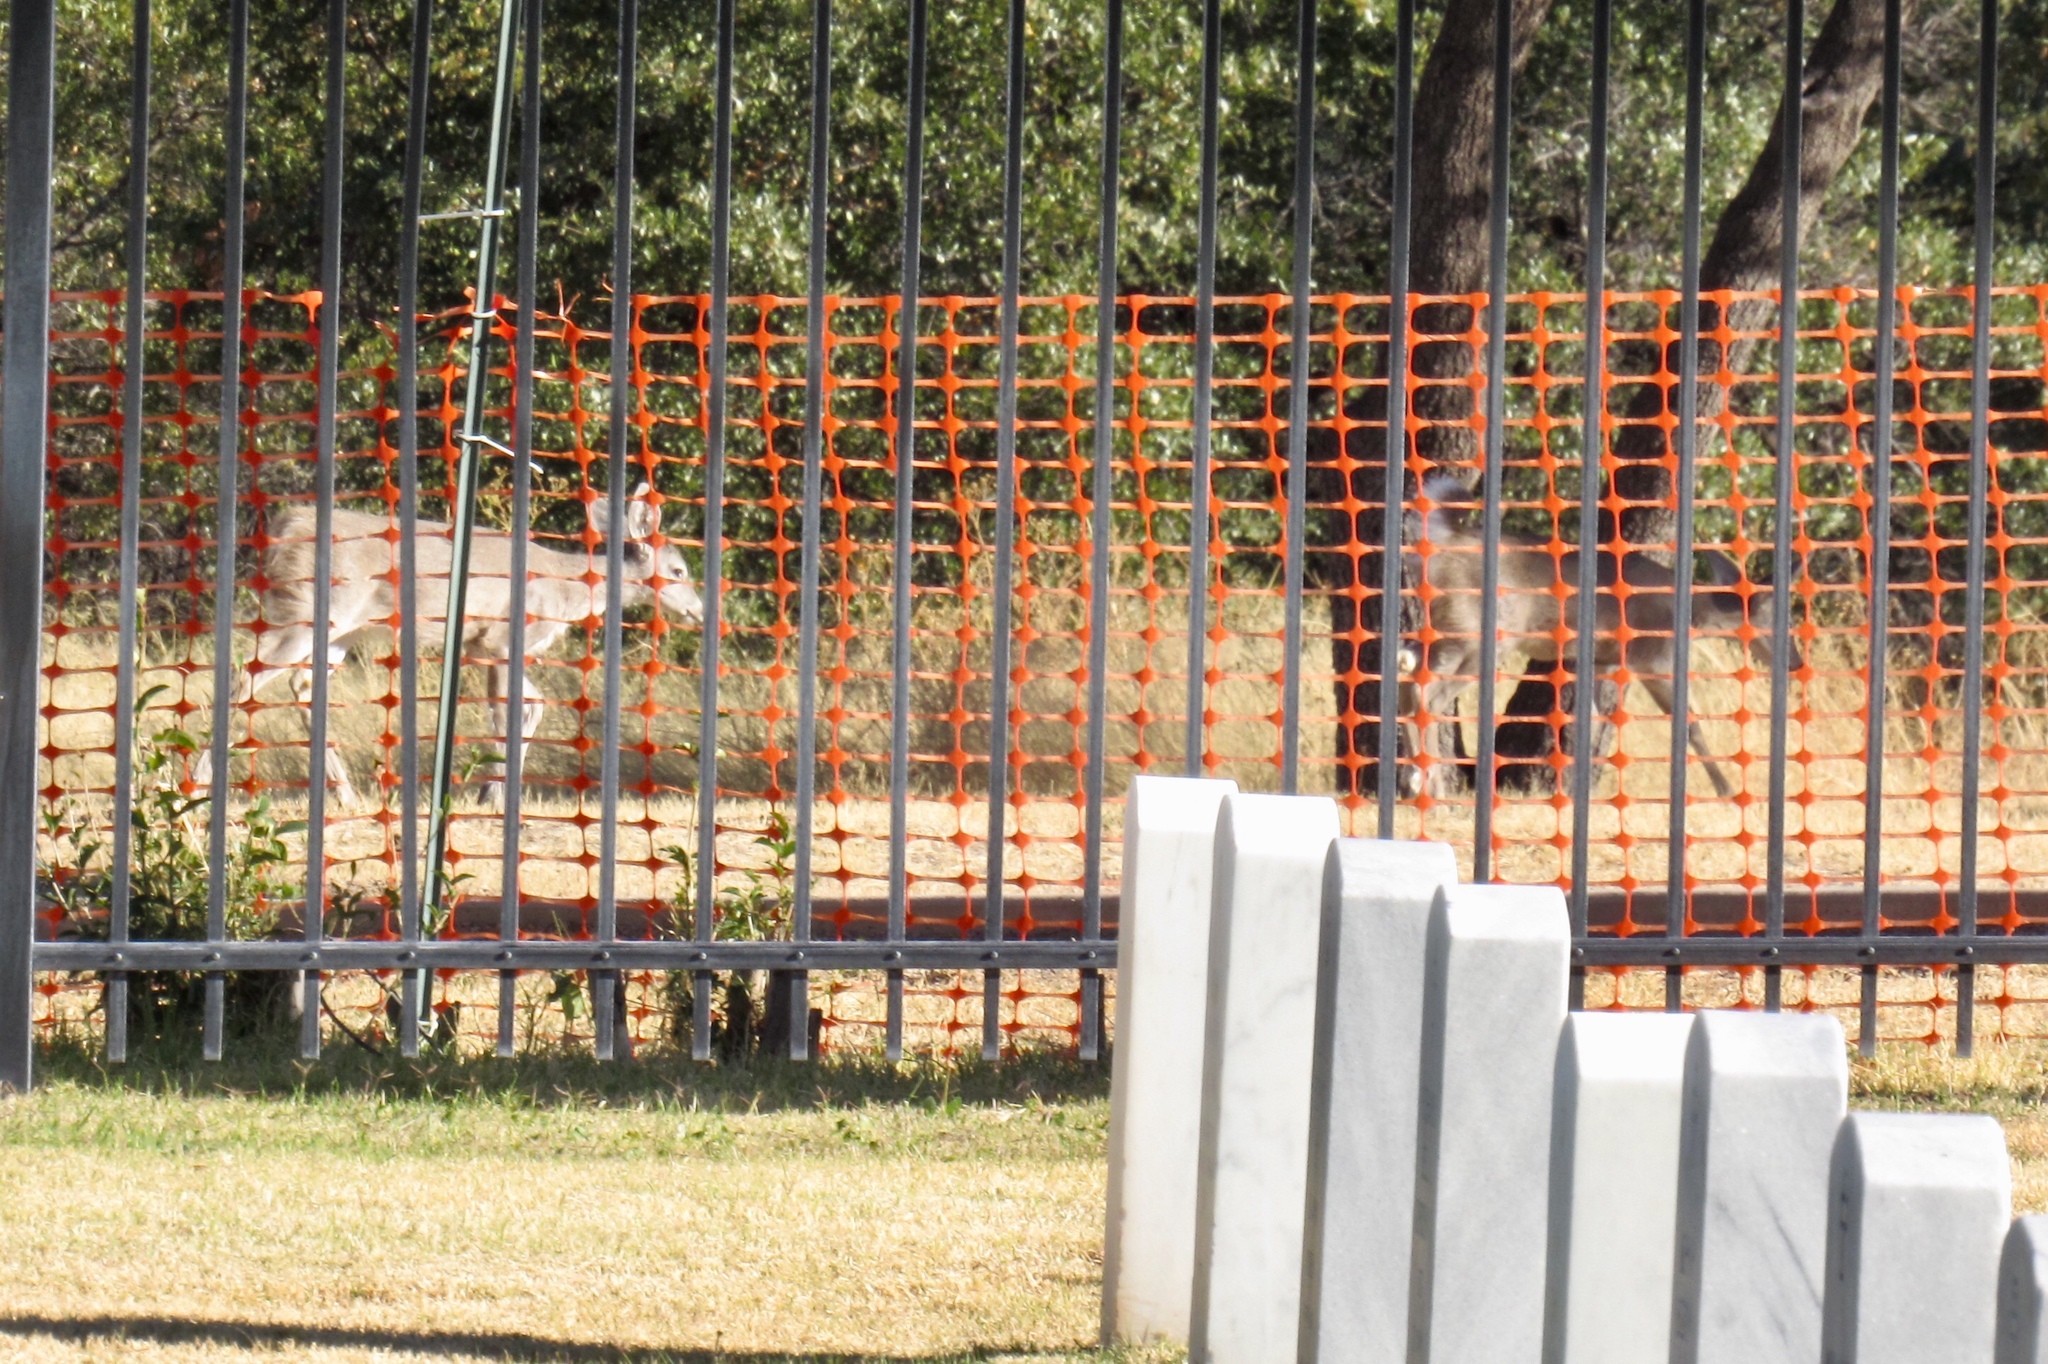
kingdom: Animalia
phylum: Chordata
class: Mammalia
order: Artiodactyla
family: Cervidae
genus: Odocoileus
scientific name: Odocoileus virginianus
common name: White-tailed deer
